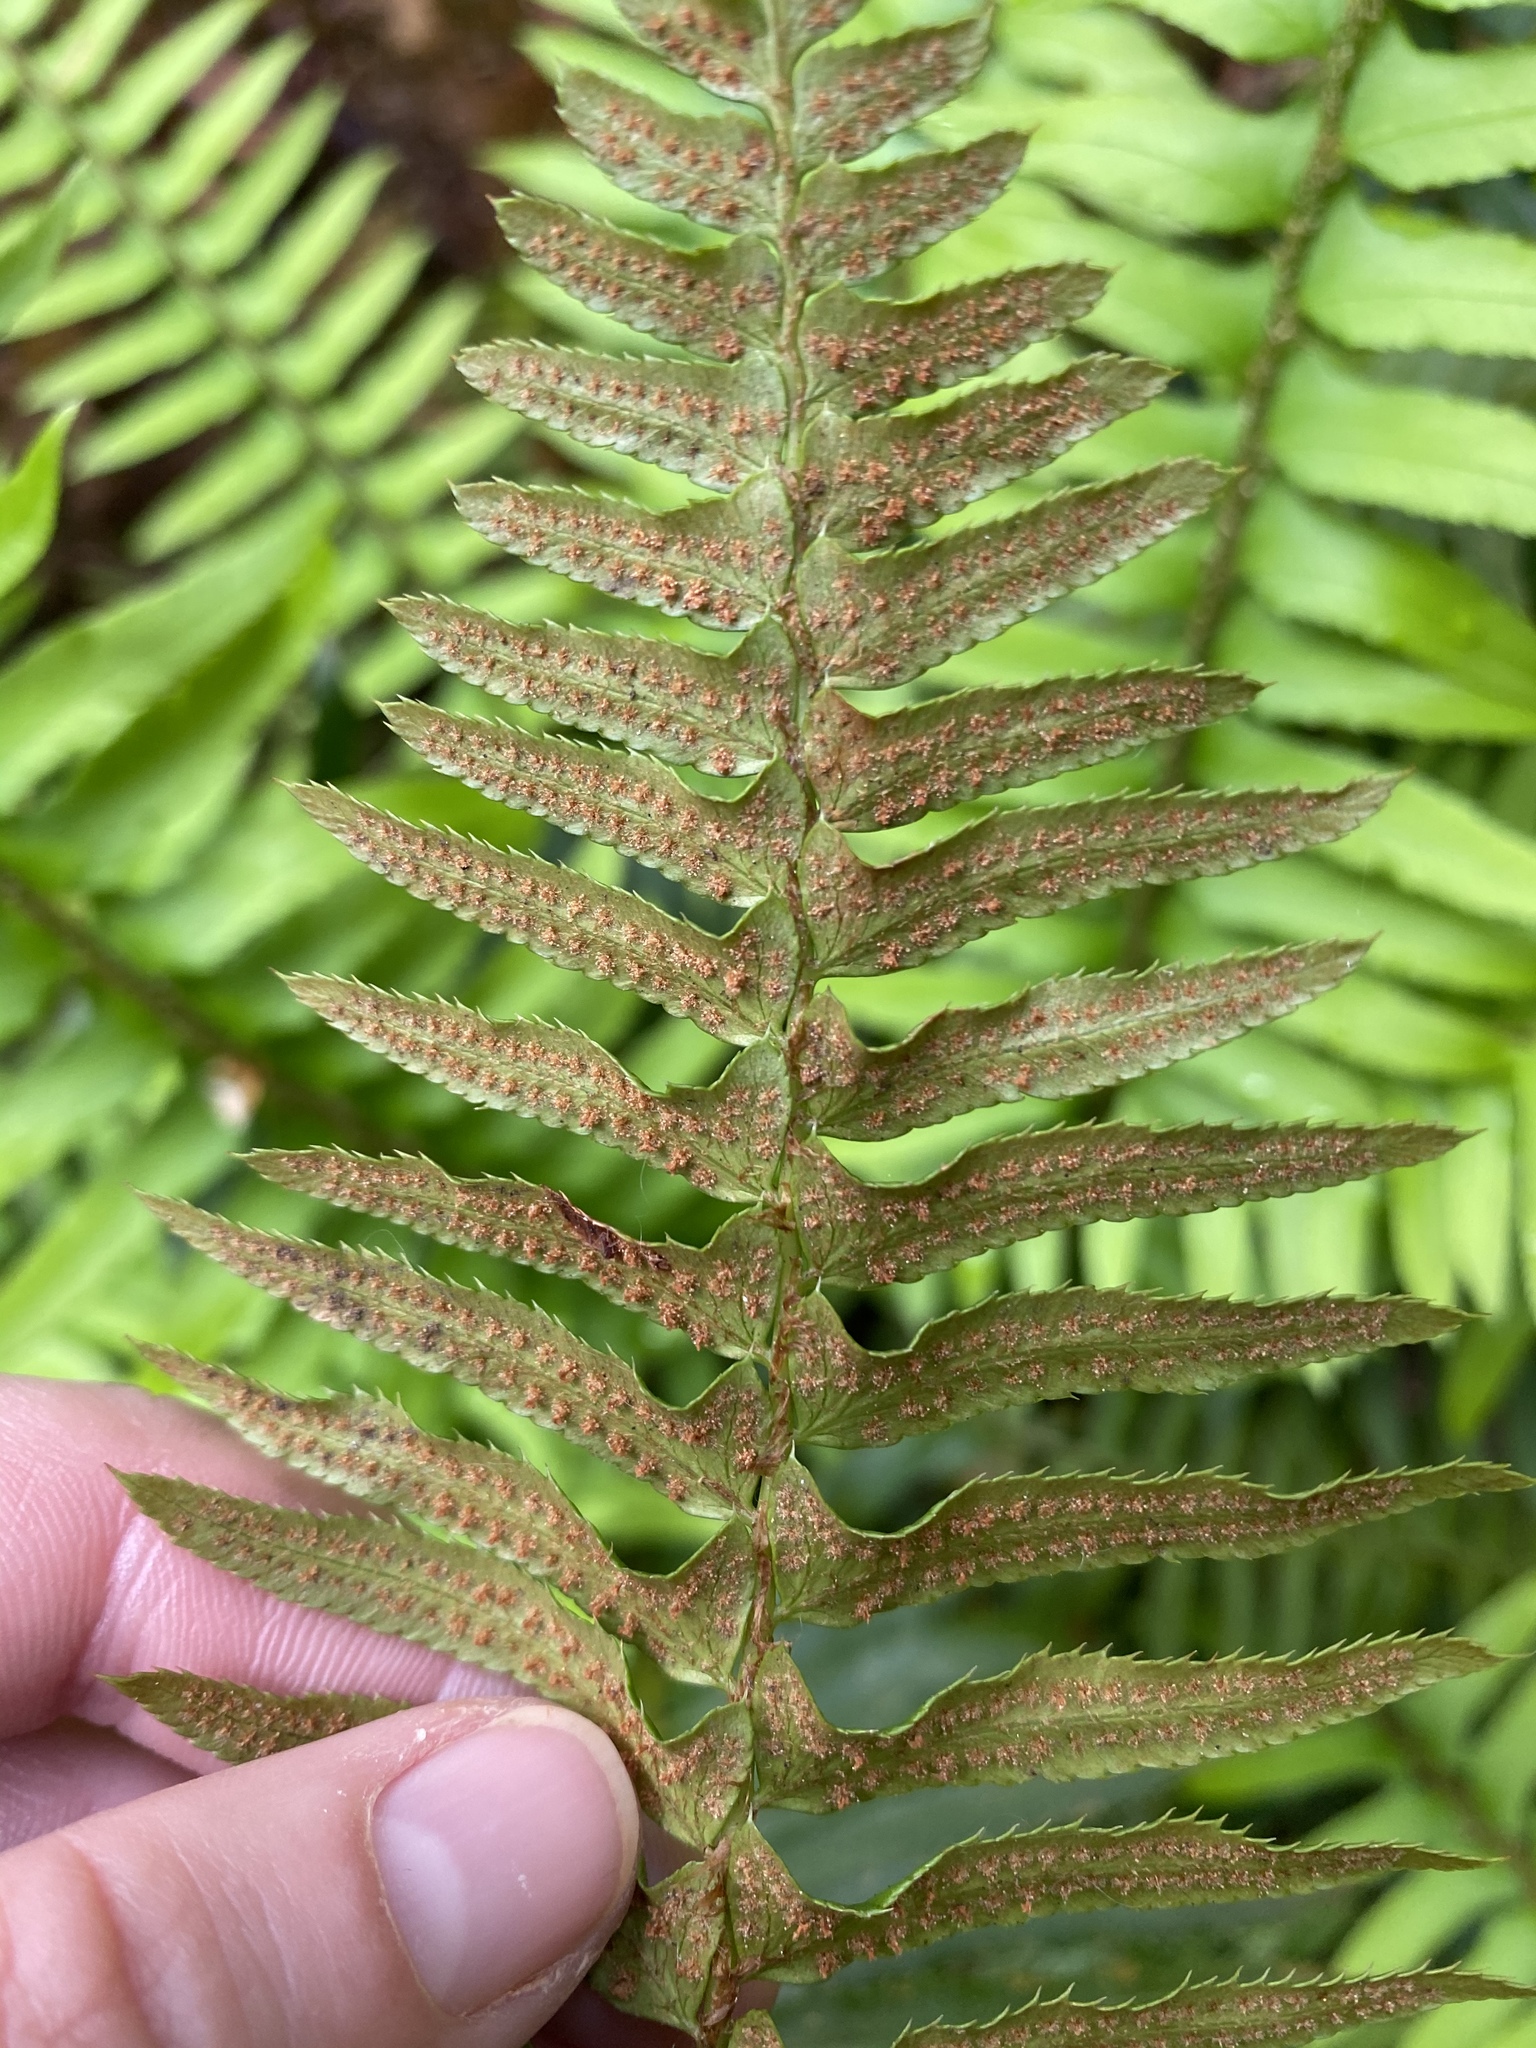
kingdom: Plantae
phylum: Tracheophyta
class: Polypodiopsida
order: Polypodiales
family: Dryopteridaceae
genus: Polystichum
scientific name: Polystichum munitum
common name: Western sword-fern
